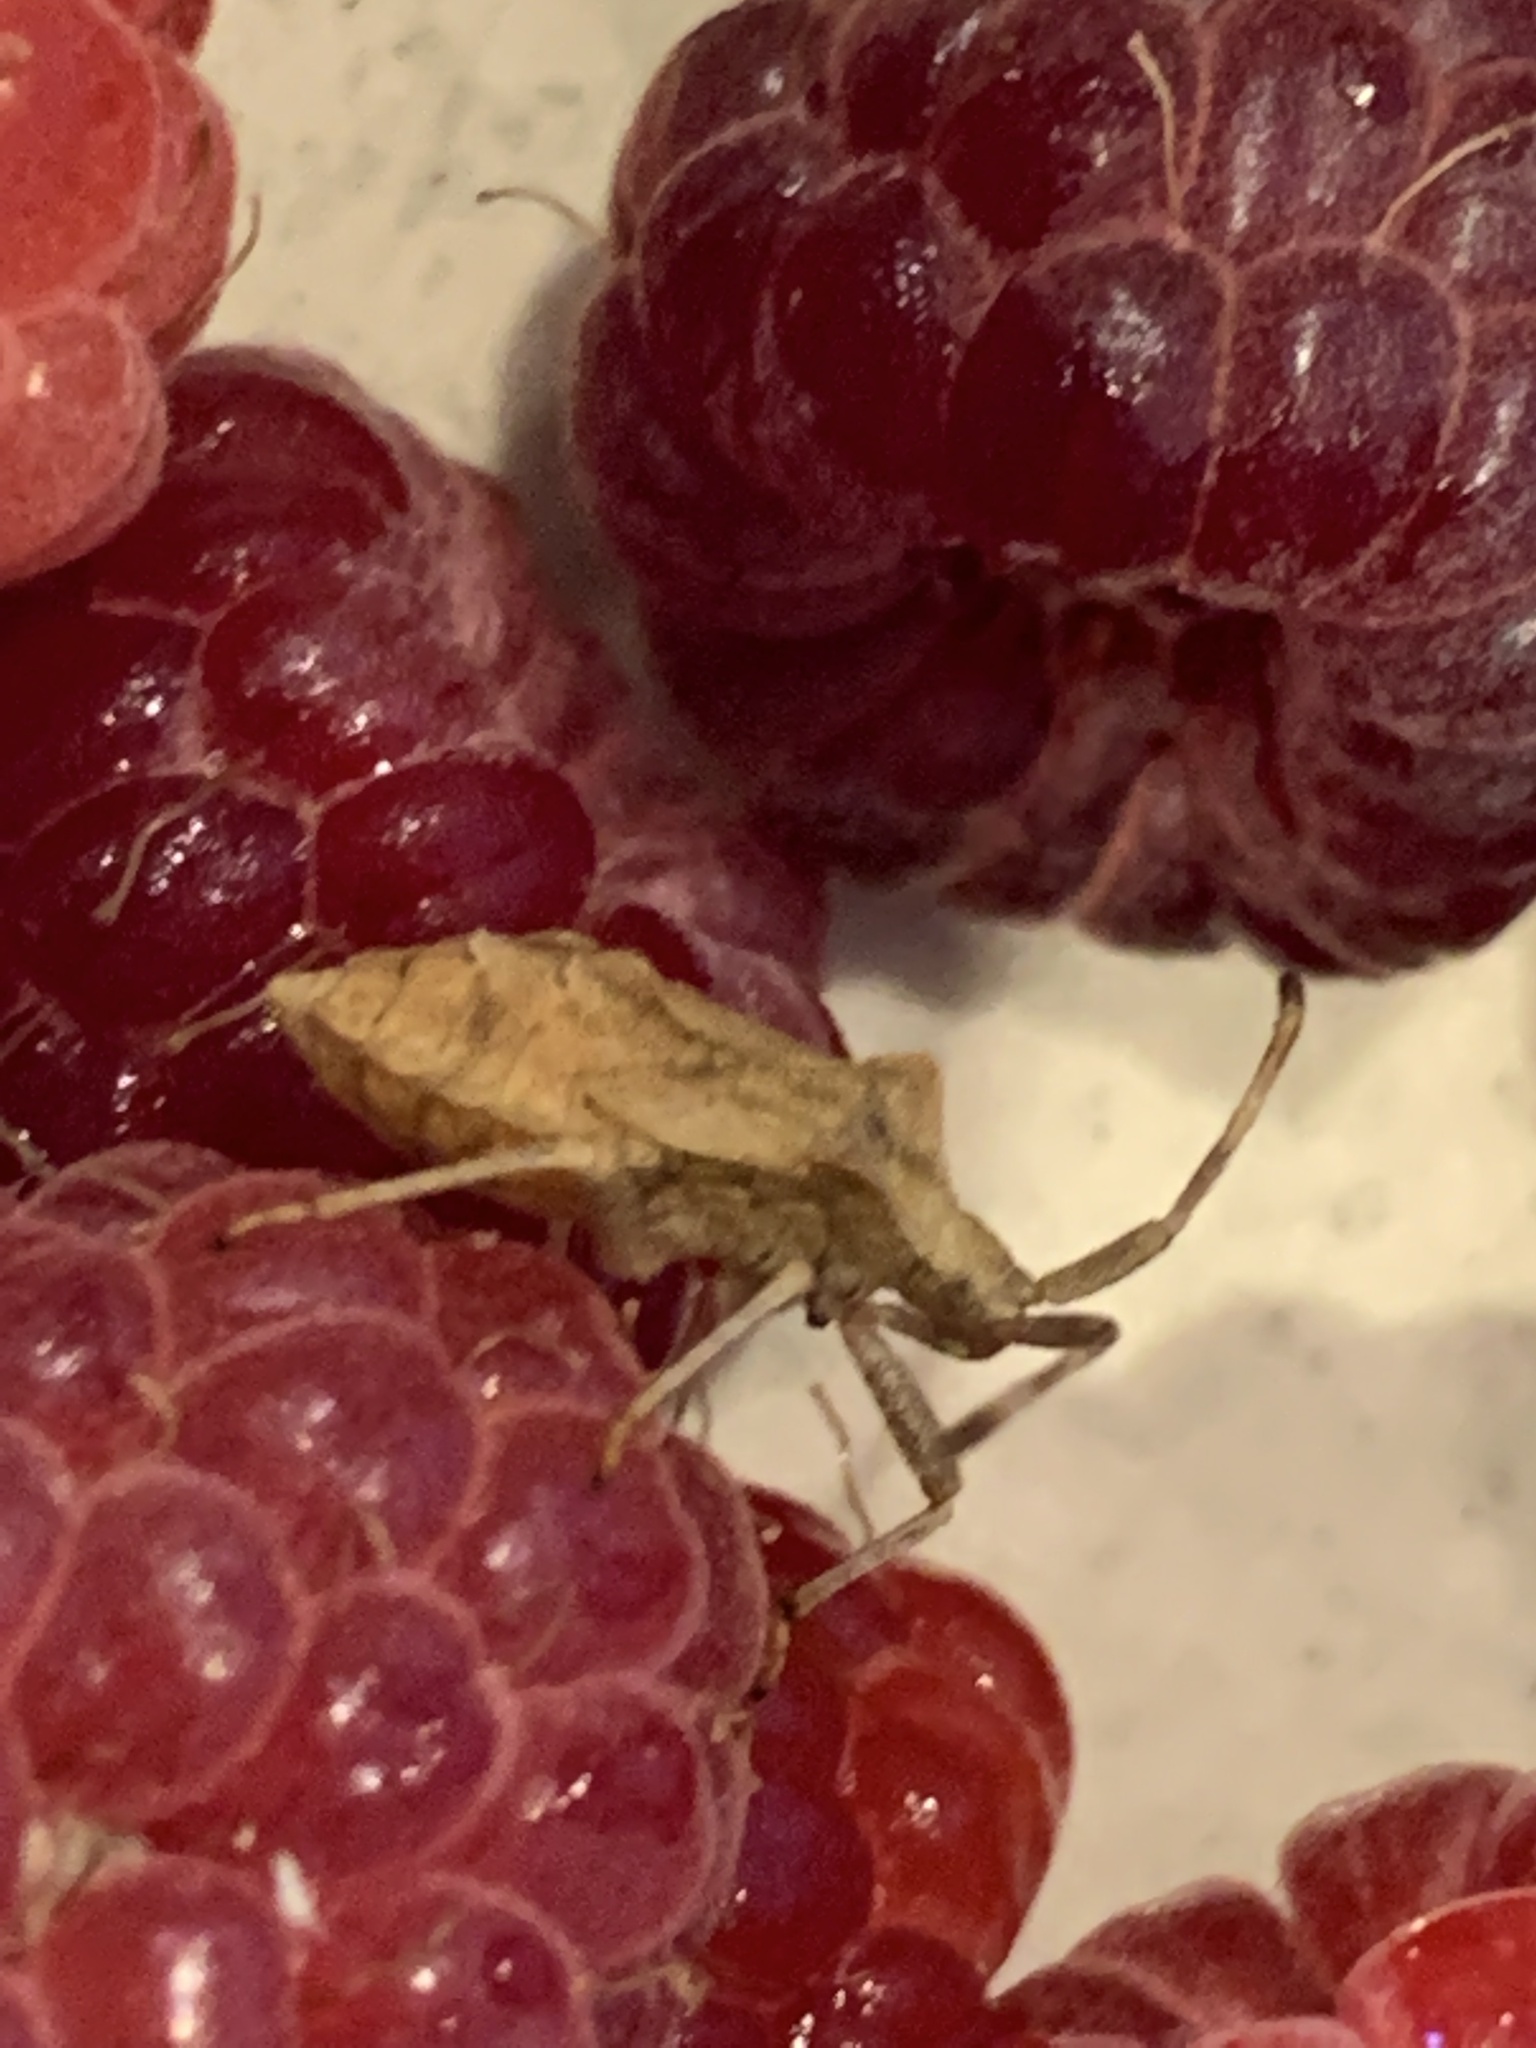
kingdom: Animalia
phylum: Arthropoda
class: Insecta
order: Hemiptera
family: Coreidae
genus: Coreus
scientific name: Coreus marginatus
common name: Dock bug
